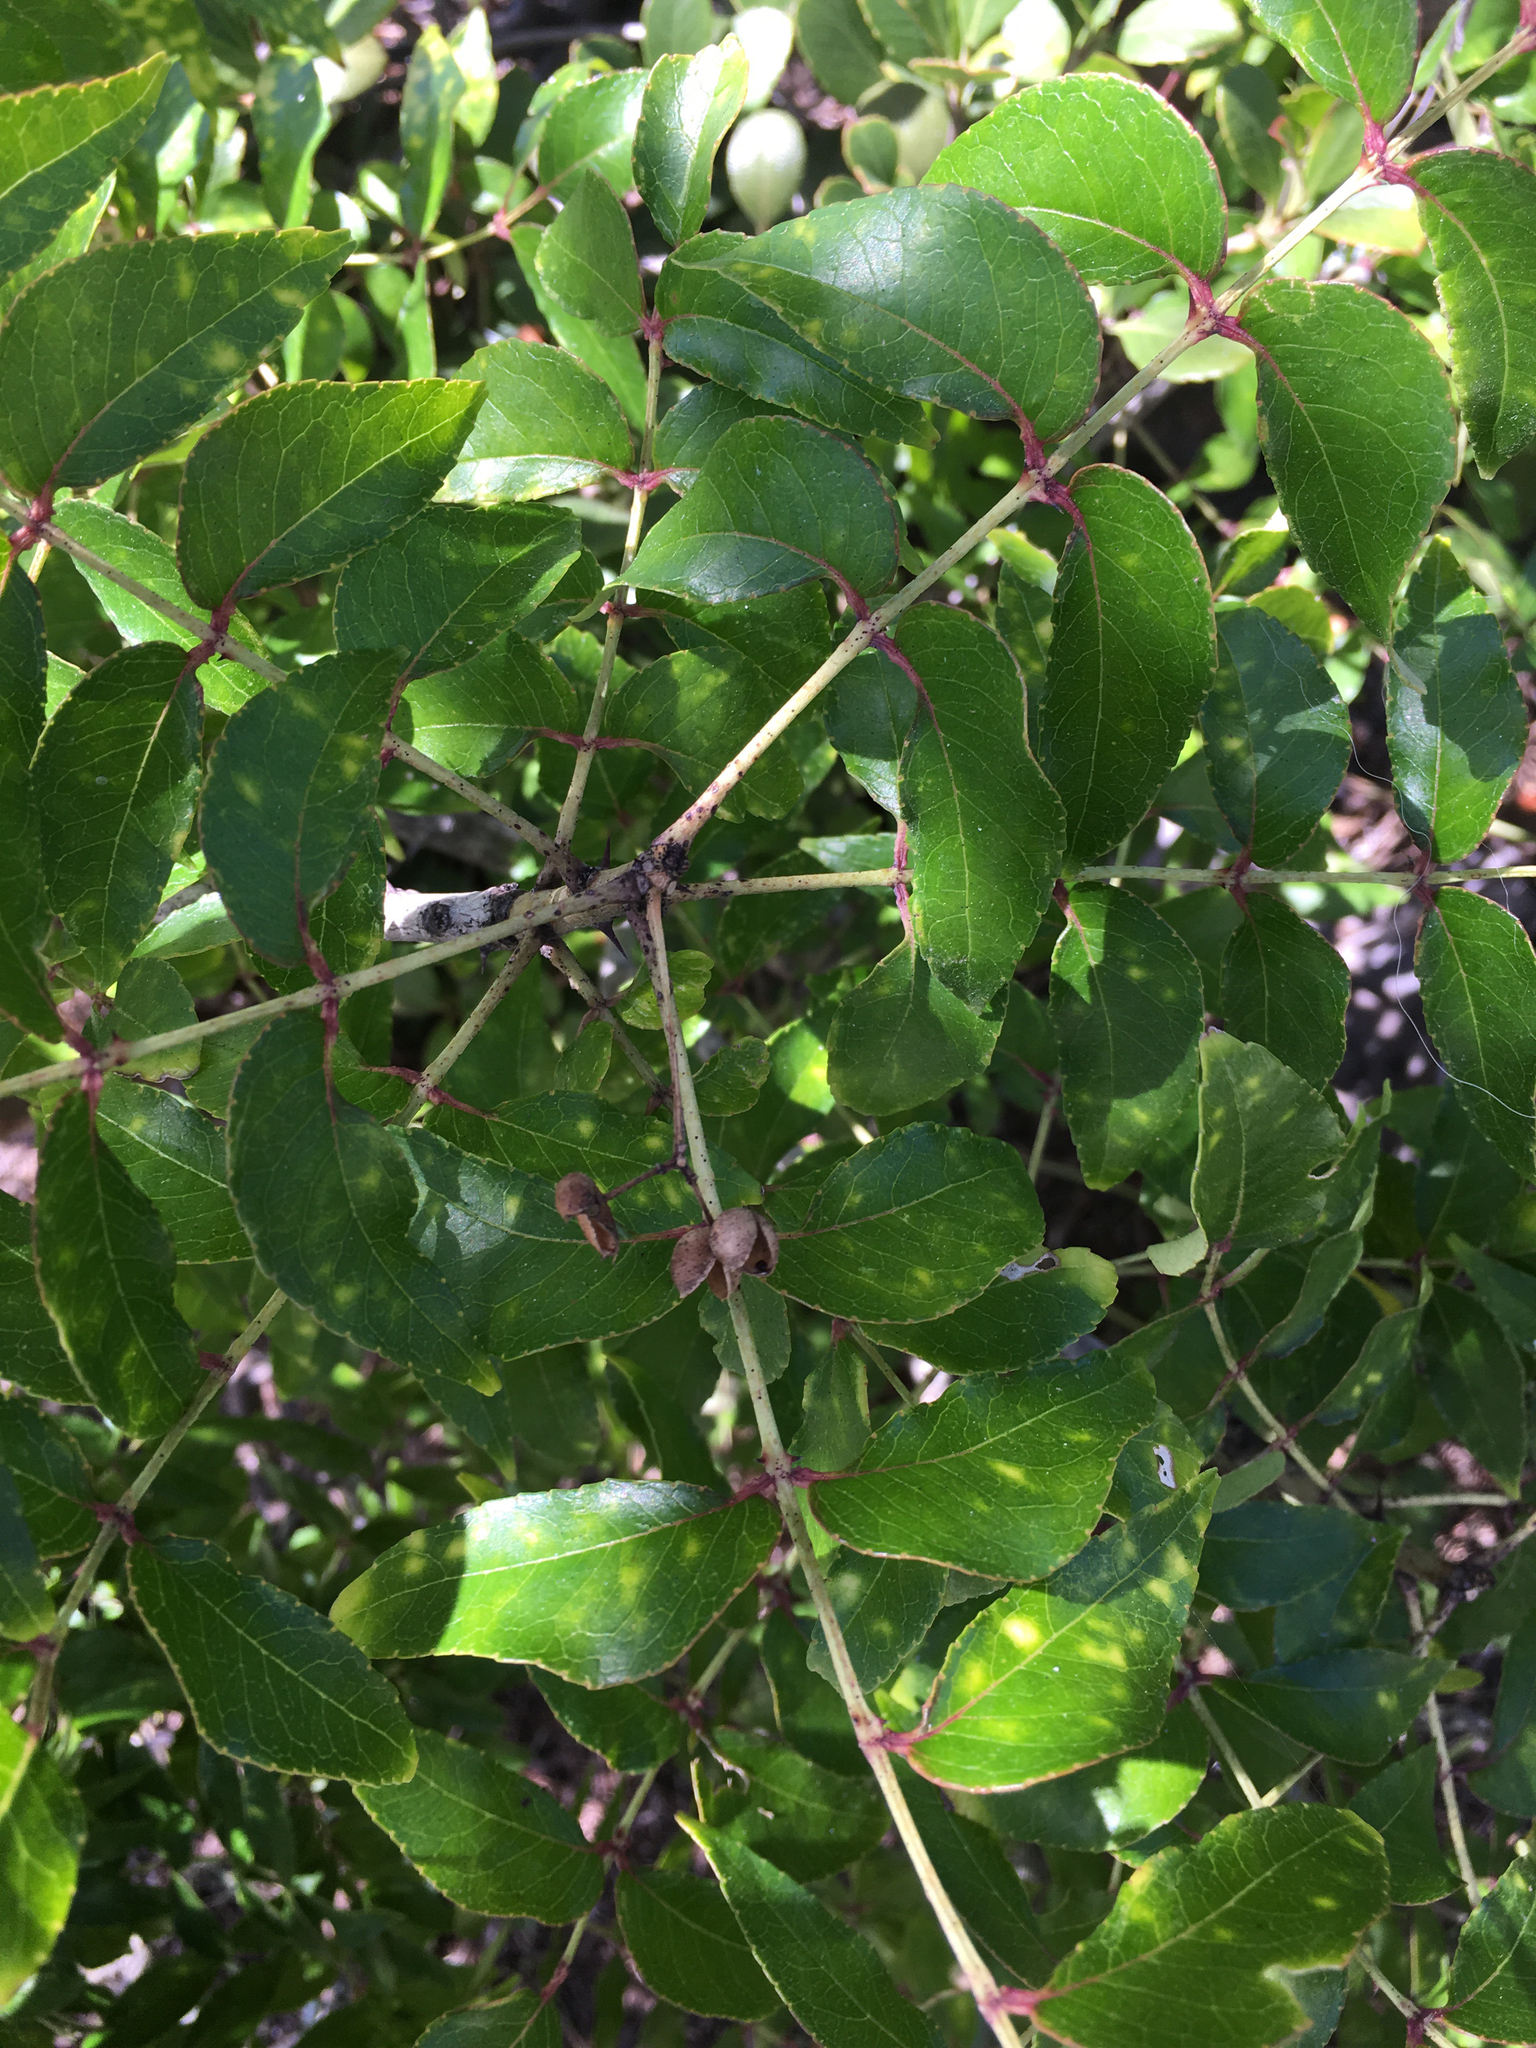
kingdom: Plantae
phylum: Tracheophyta
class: Magnoliopsida
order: Sapindales
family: Rutaceae
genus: Zanthoxylum
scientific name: Zanthoxylum clava-herculis
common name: Hercules'-club
